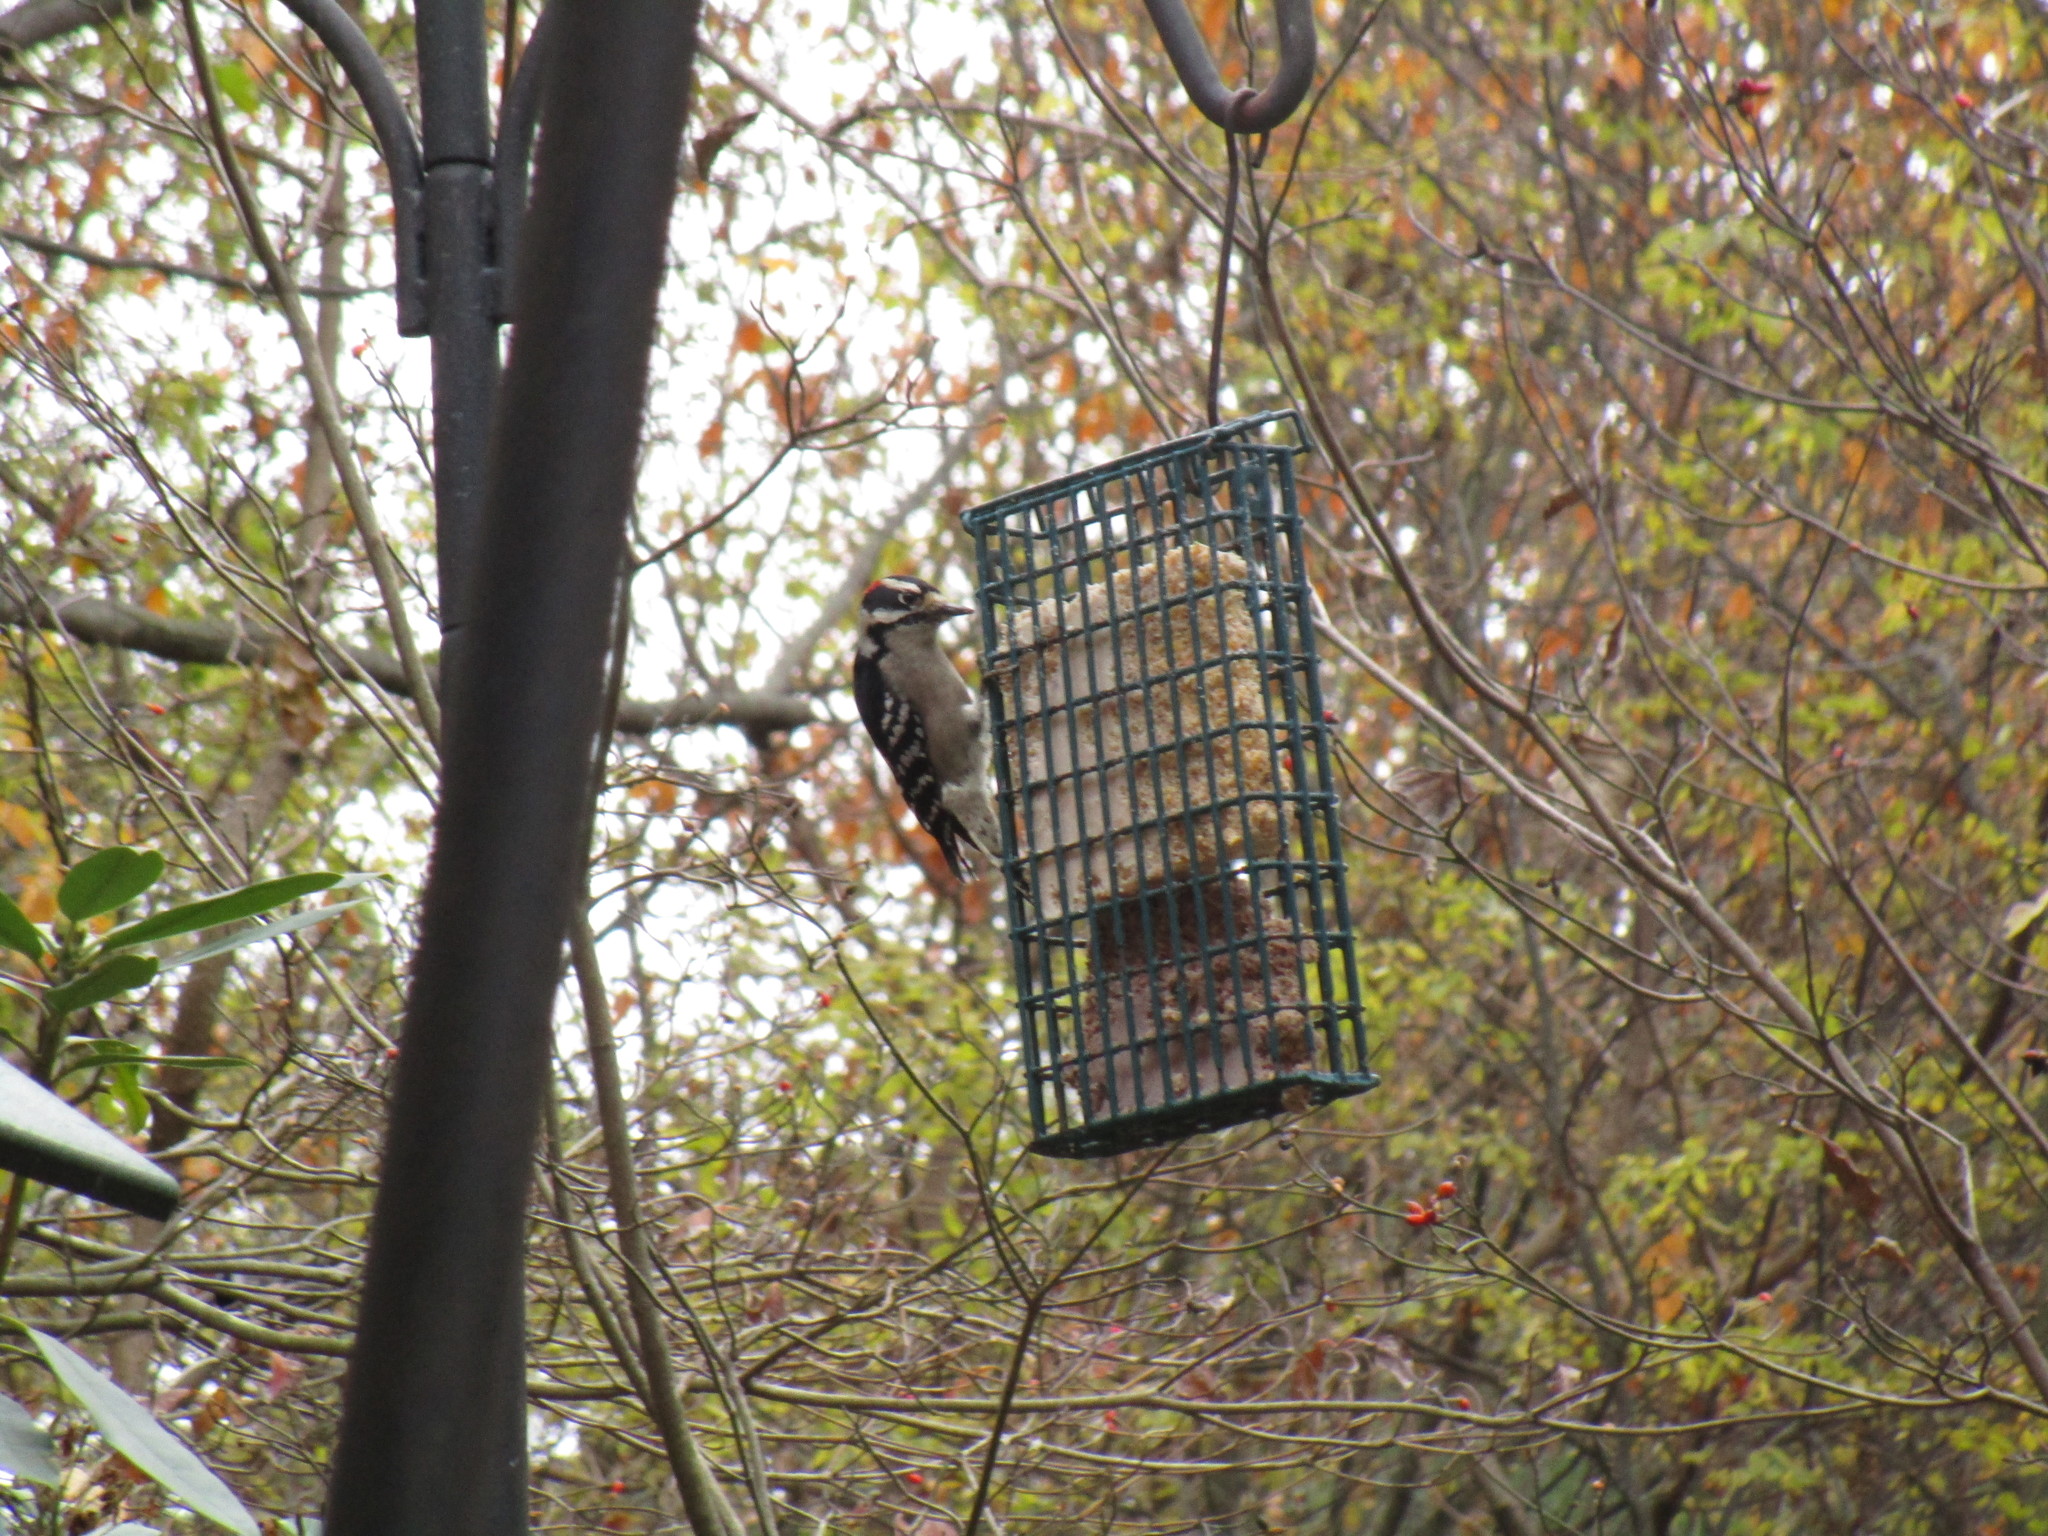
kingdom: Animalia
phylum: Chordata
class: Aves
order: Piciformes
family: Picidae
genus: Dryobates
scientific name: Dryobates pubescens
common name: Downy woodpecker
